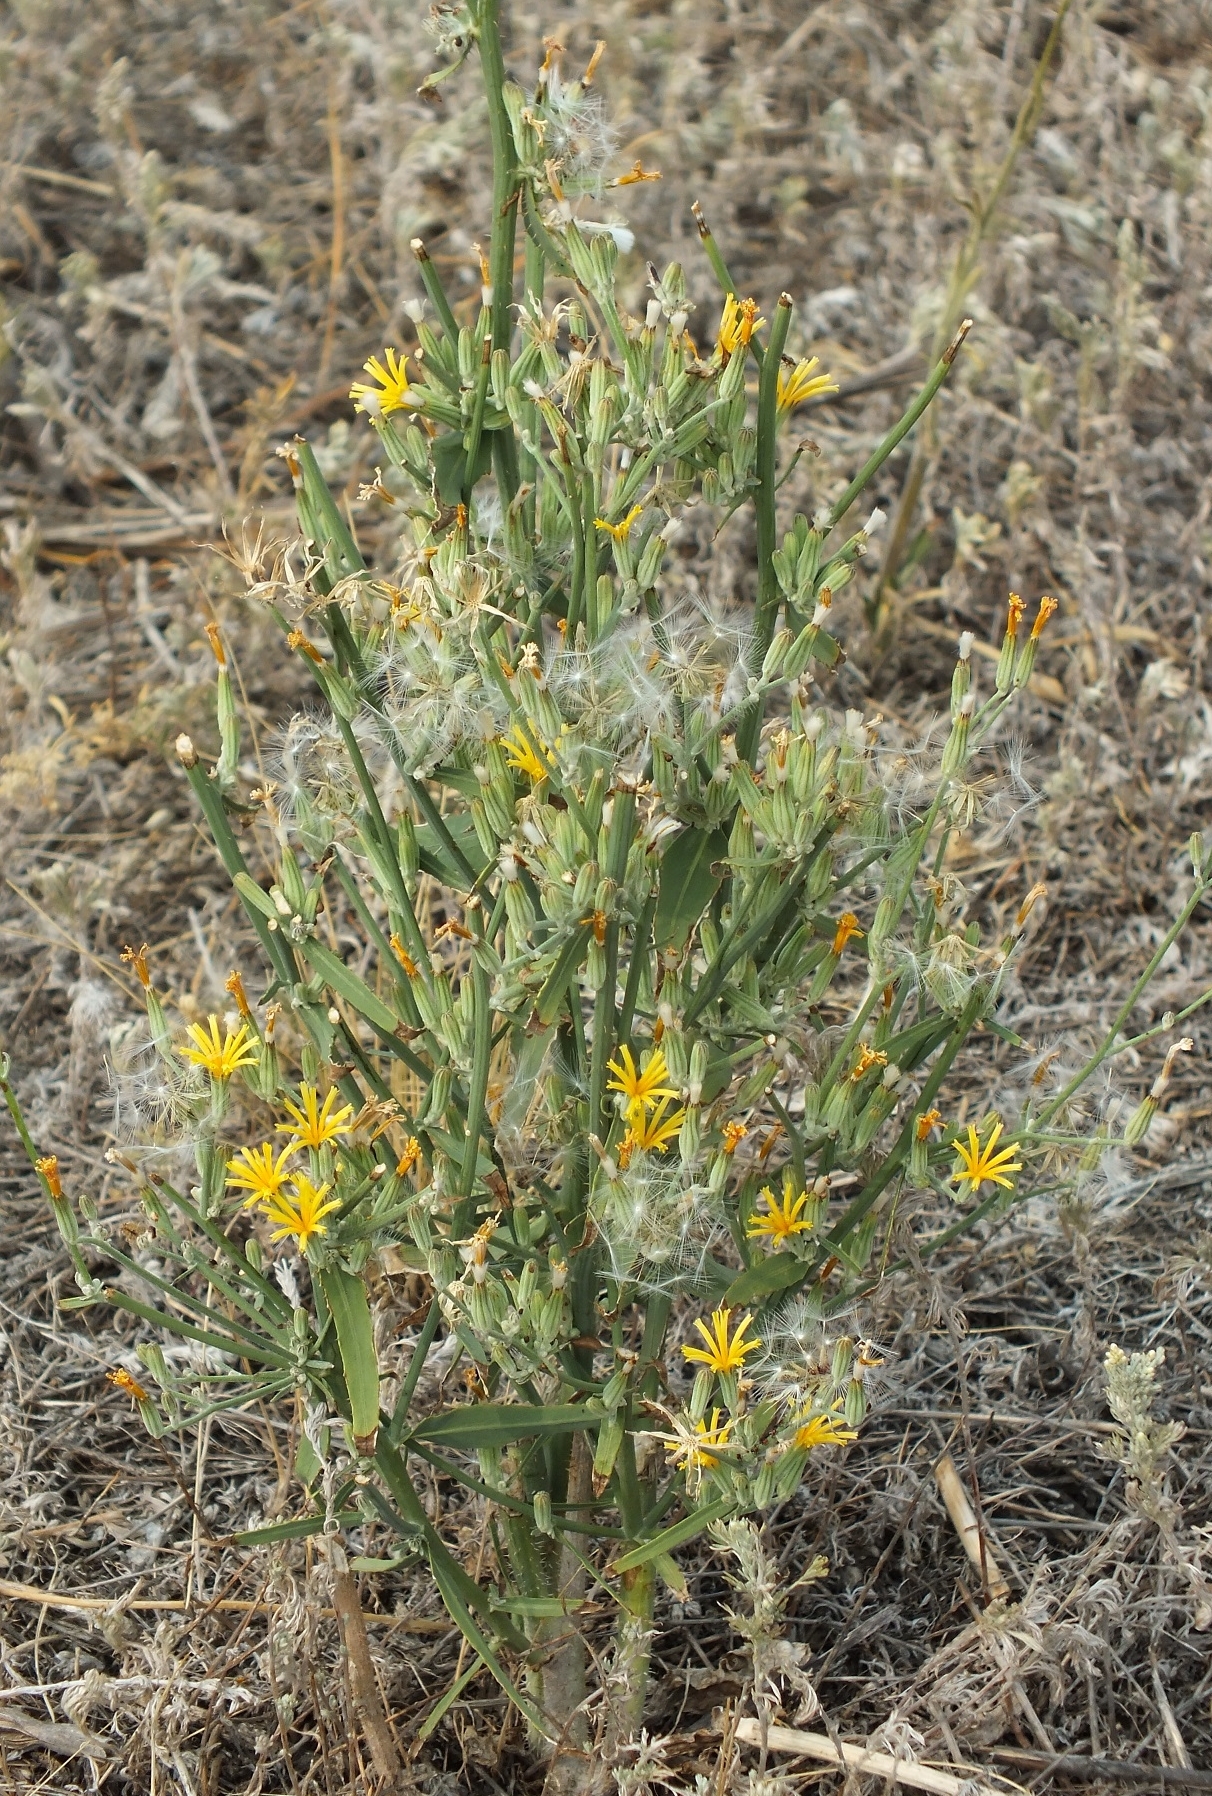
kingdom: Plantae
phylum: Tracheophyta
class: Magnoliopsida
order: Asterales
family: Asteraceae
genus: Chondrilla
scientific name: Chondrilla juncea
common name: Skeleton weed
